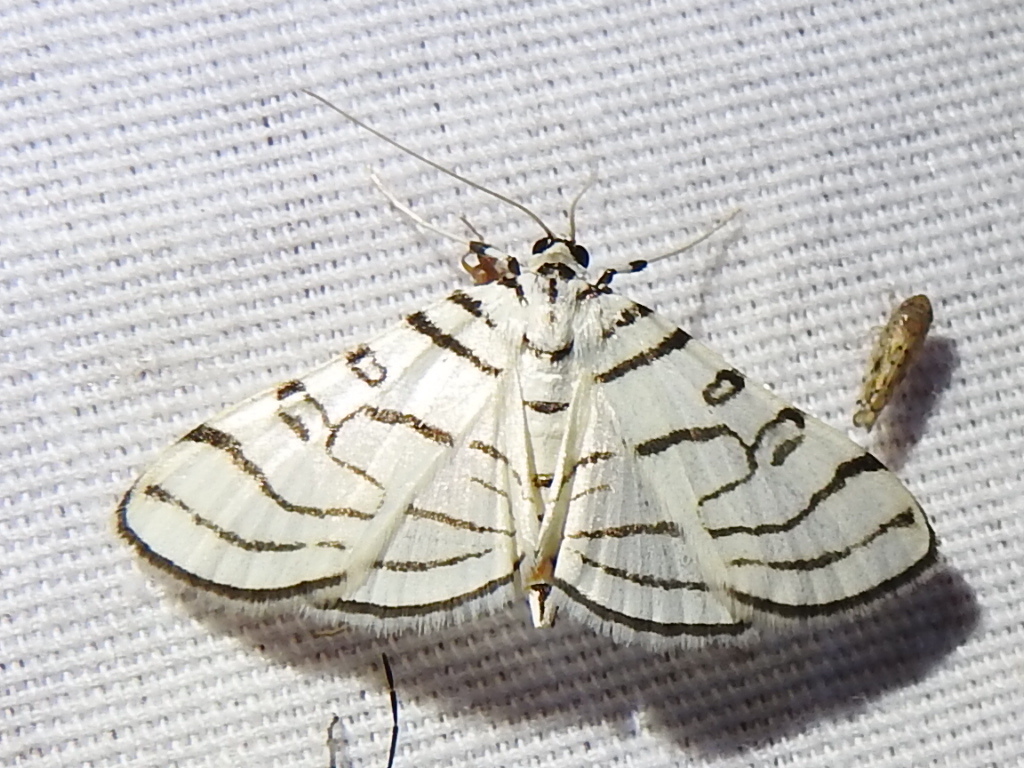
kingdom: Animalia
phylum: Arthropoda
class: Insecta
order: Lepidoptera
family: Crambidae
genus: Conchylodes
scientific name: Conchylodes concinnalis
